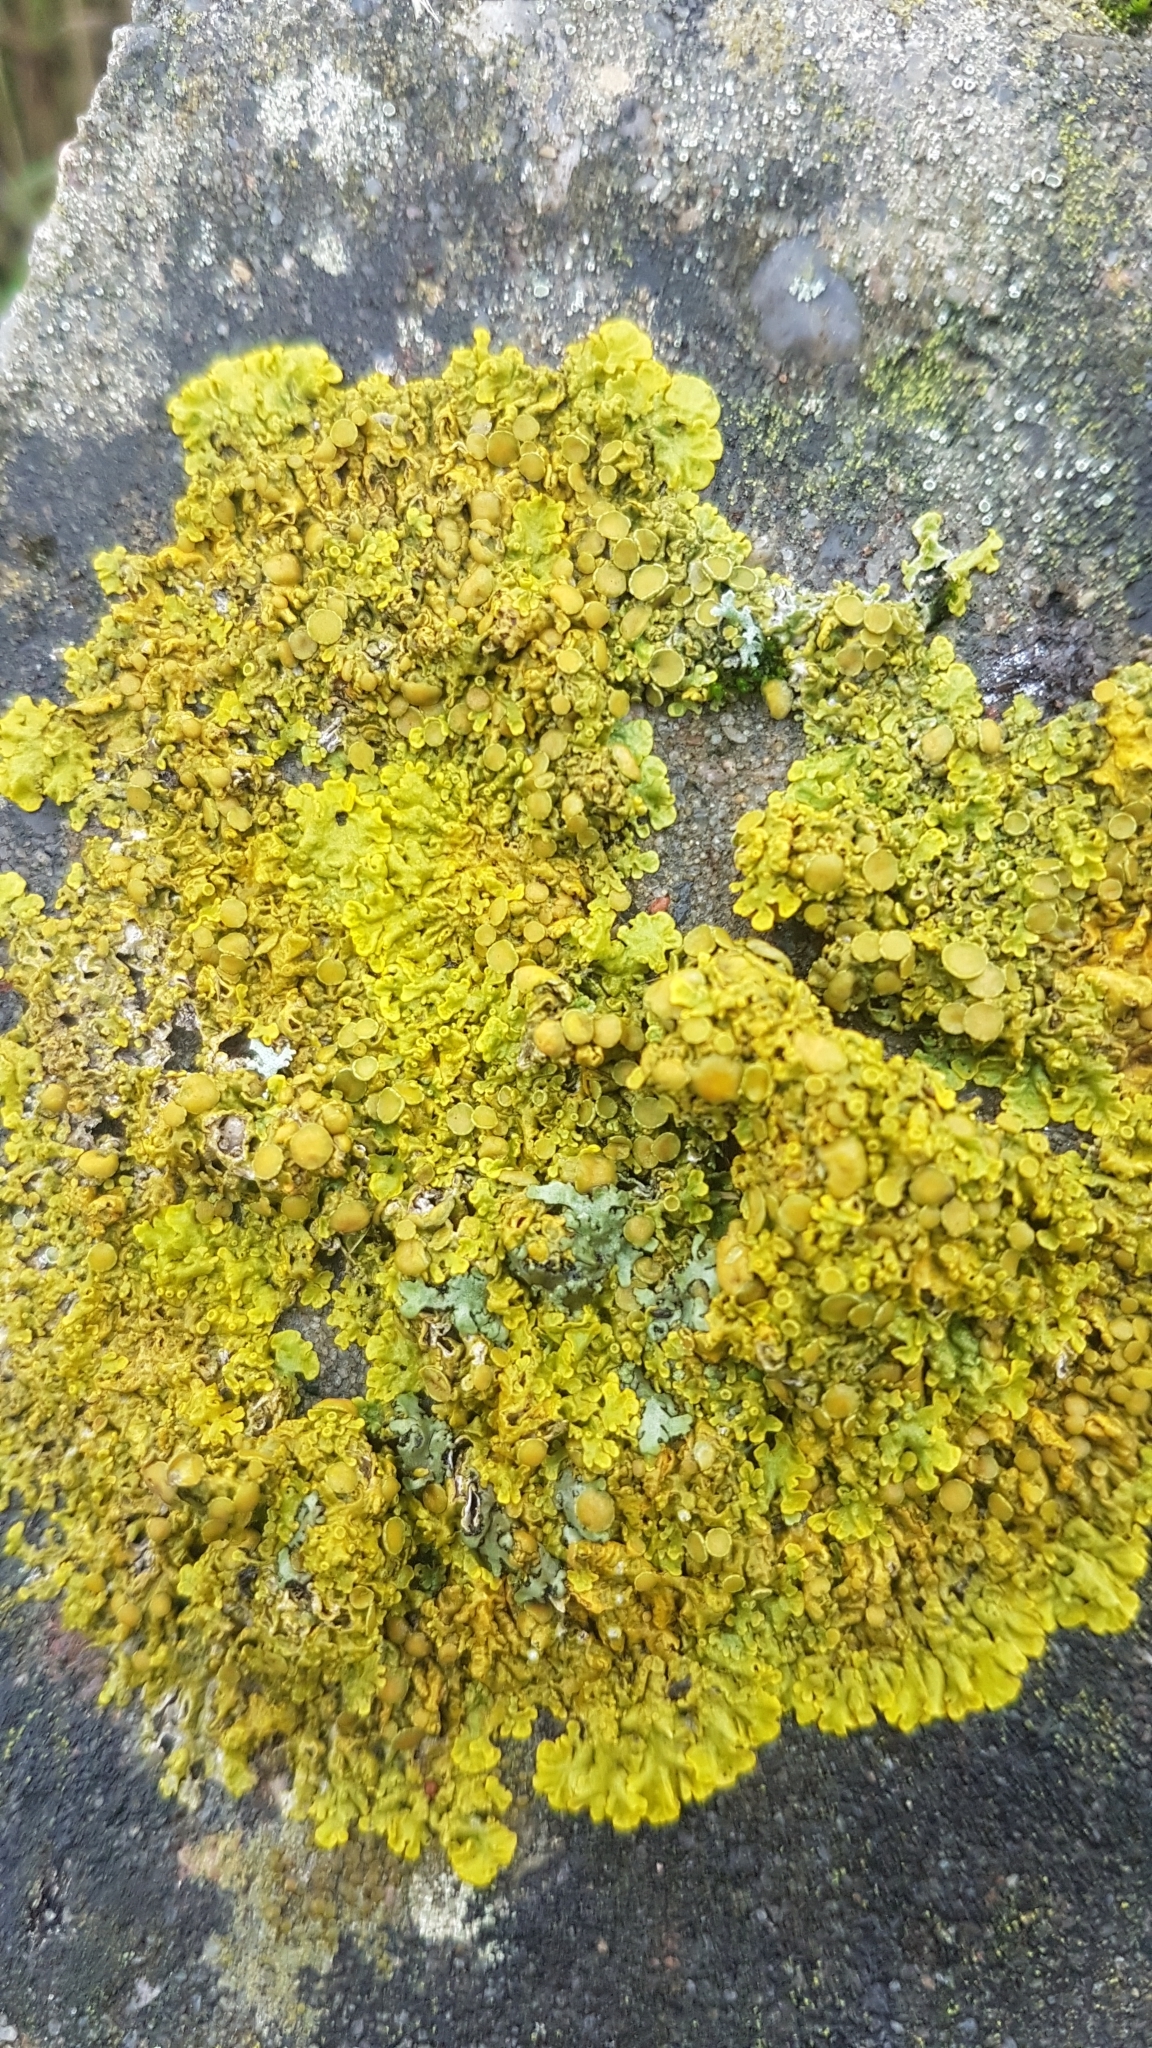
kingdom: Fungi
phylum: Ascomycota
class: Lecanoromycetes
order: Teloschistales
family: Teloschistaceae
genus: Xanthoria
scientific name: Xanthoria parietina
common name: Common orange lichen
